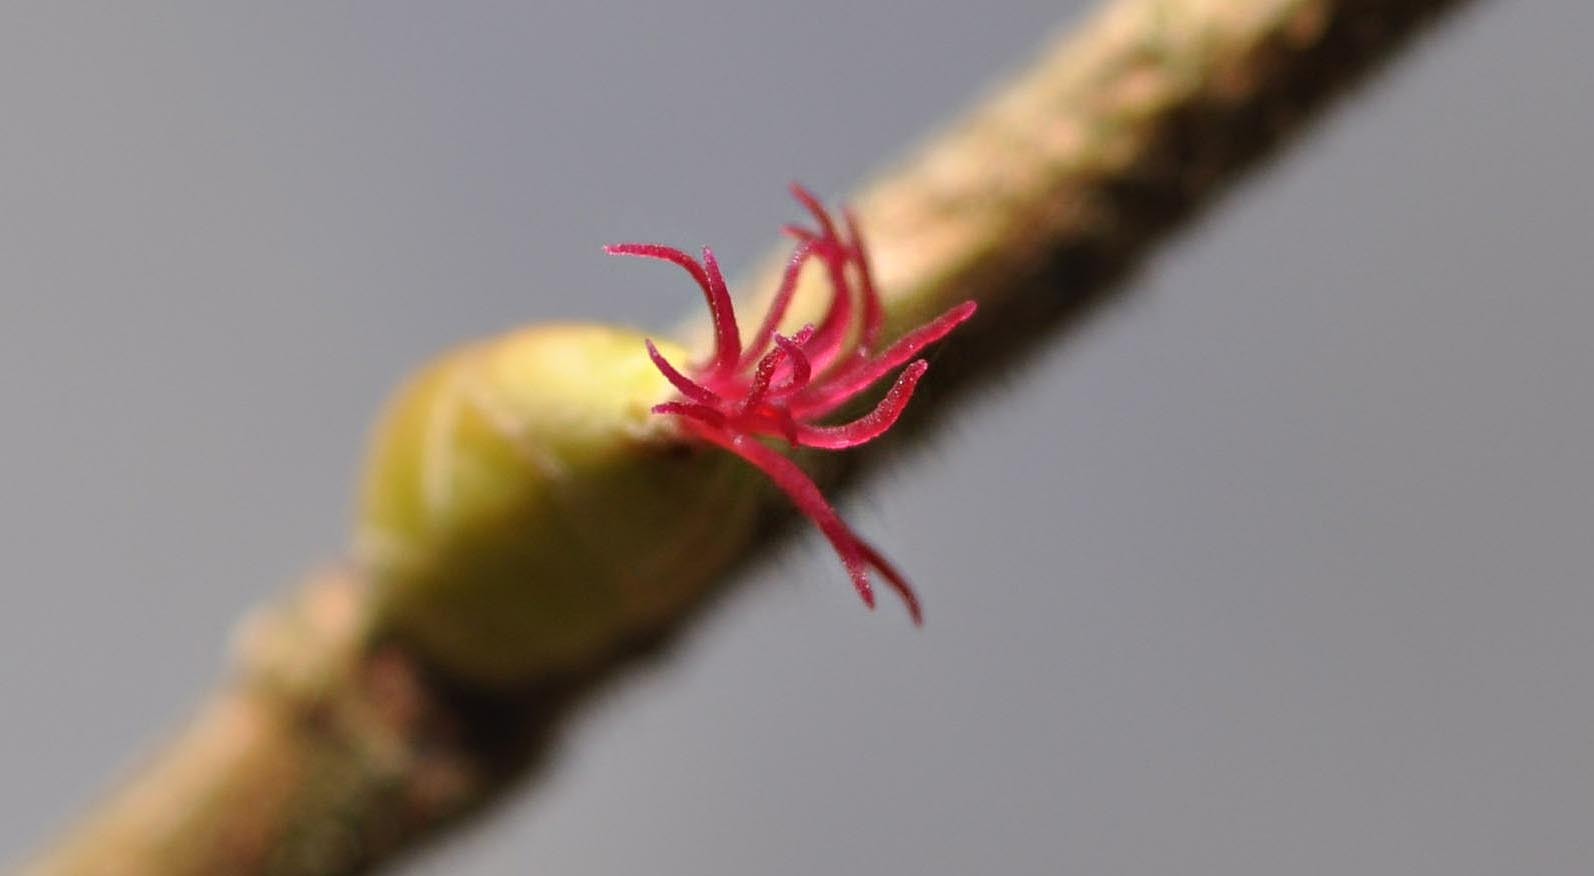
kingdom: Plantae
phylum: Tracheophyta
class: Magnoliopsida
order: Fagales
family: Betulaceae
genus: Corylus
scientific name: Corylus avellana
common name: European hazel
